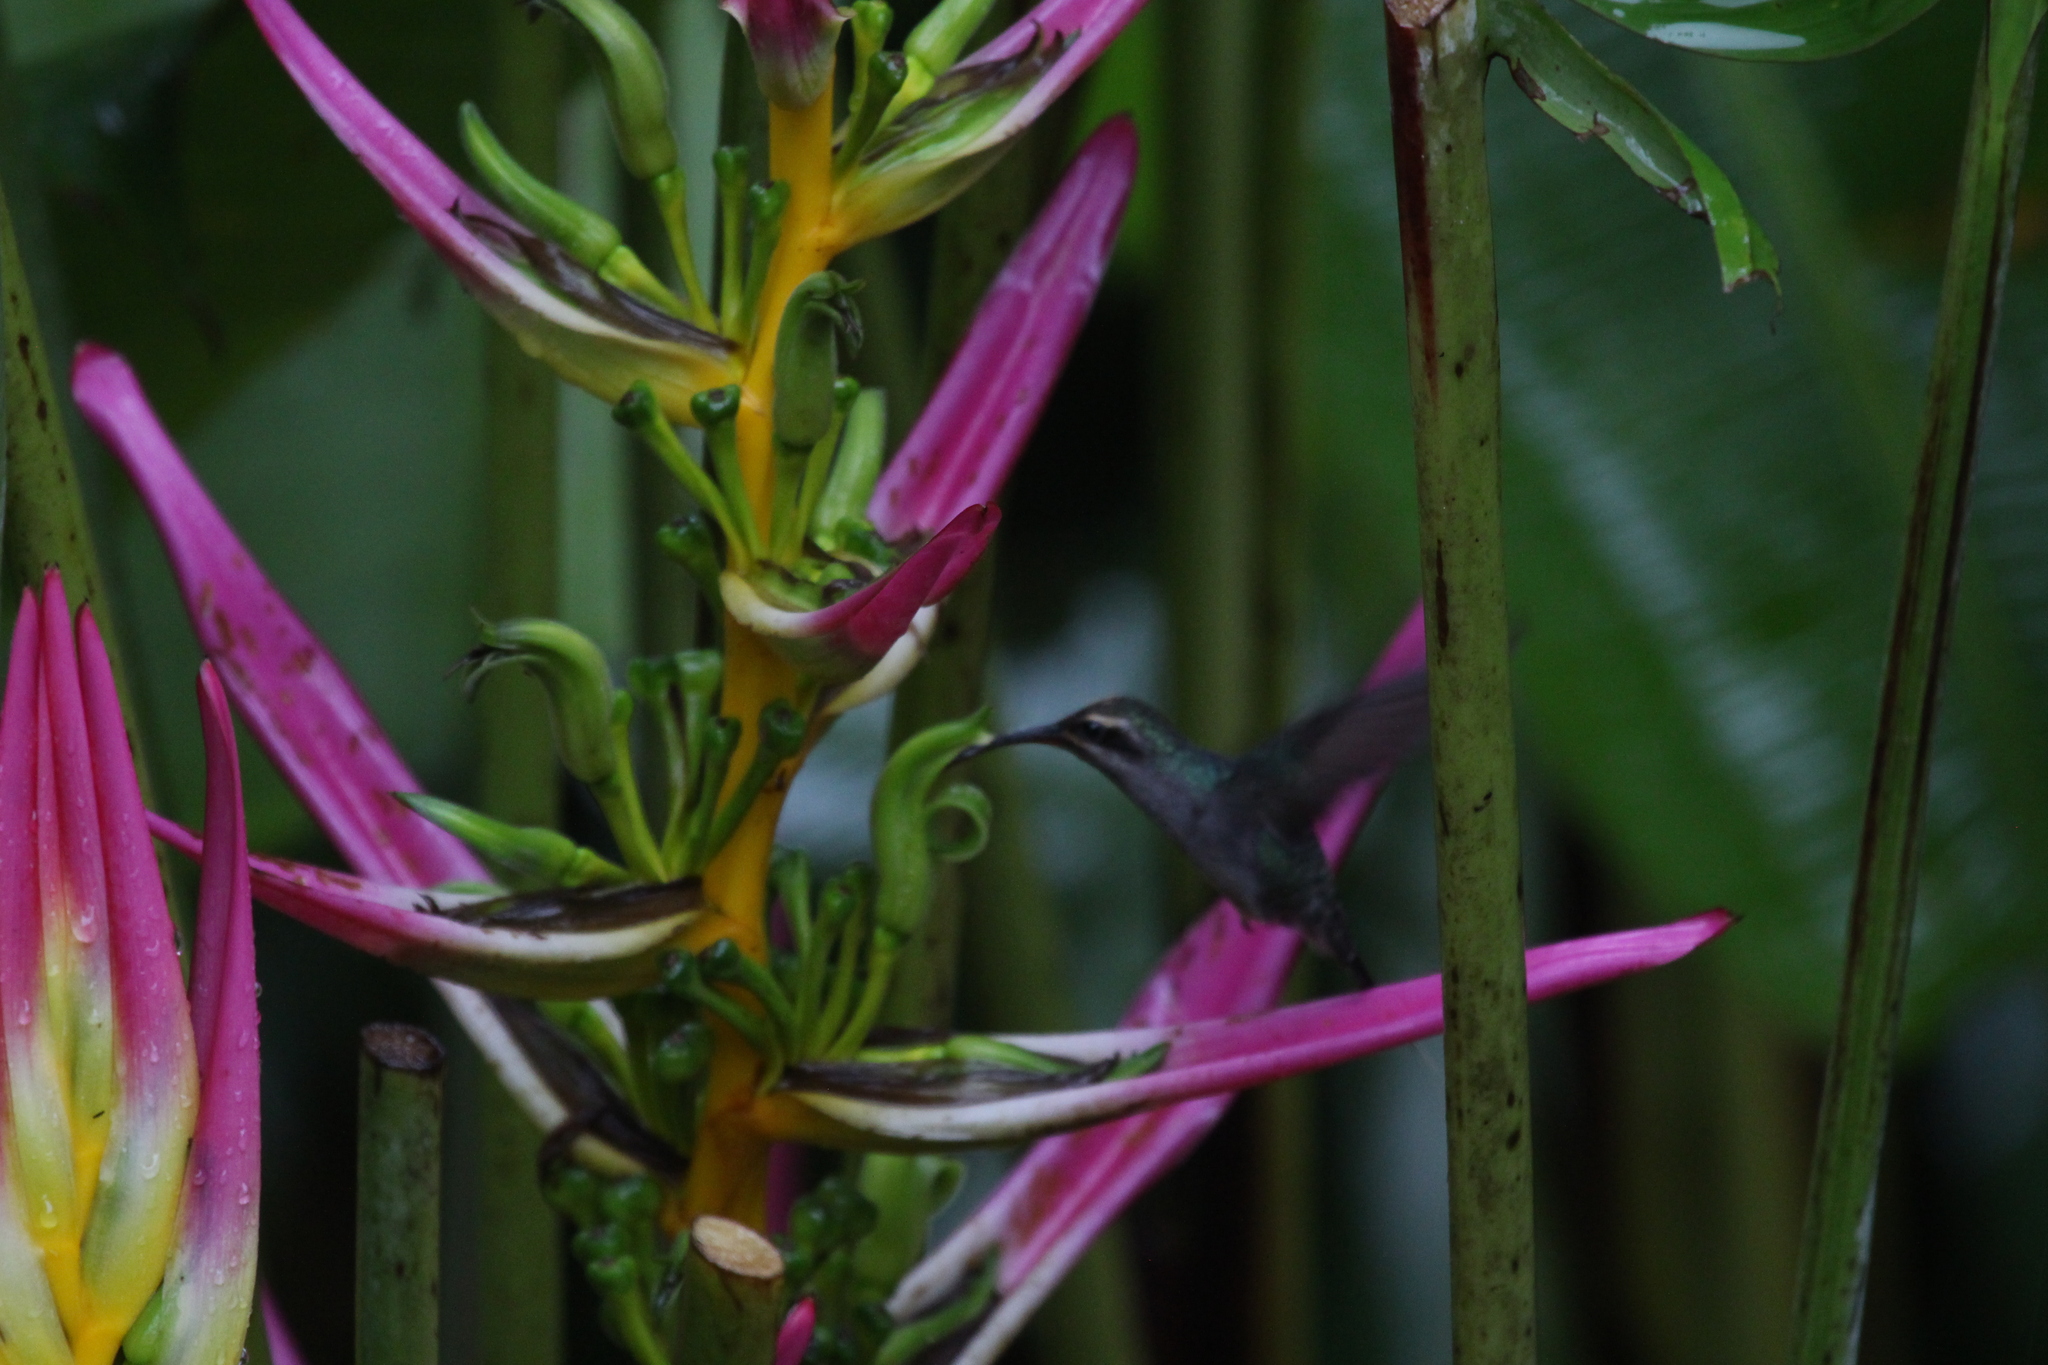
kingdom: Animalia
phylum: Chordata
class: Aves
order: Apodiformes
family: Trochilidae
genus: Phaethornis
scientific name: Phaethornis guy
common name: Green hermit
